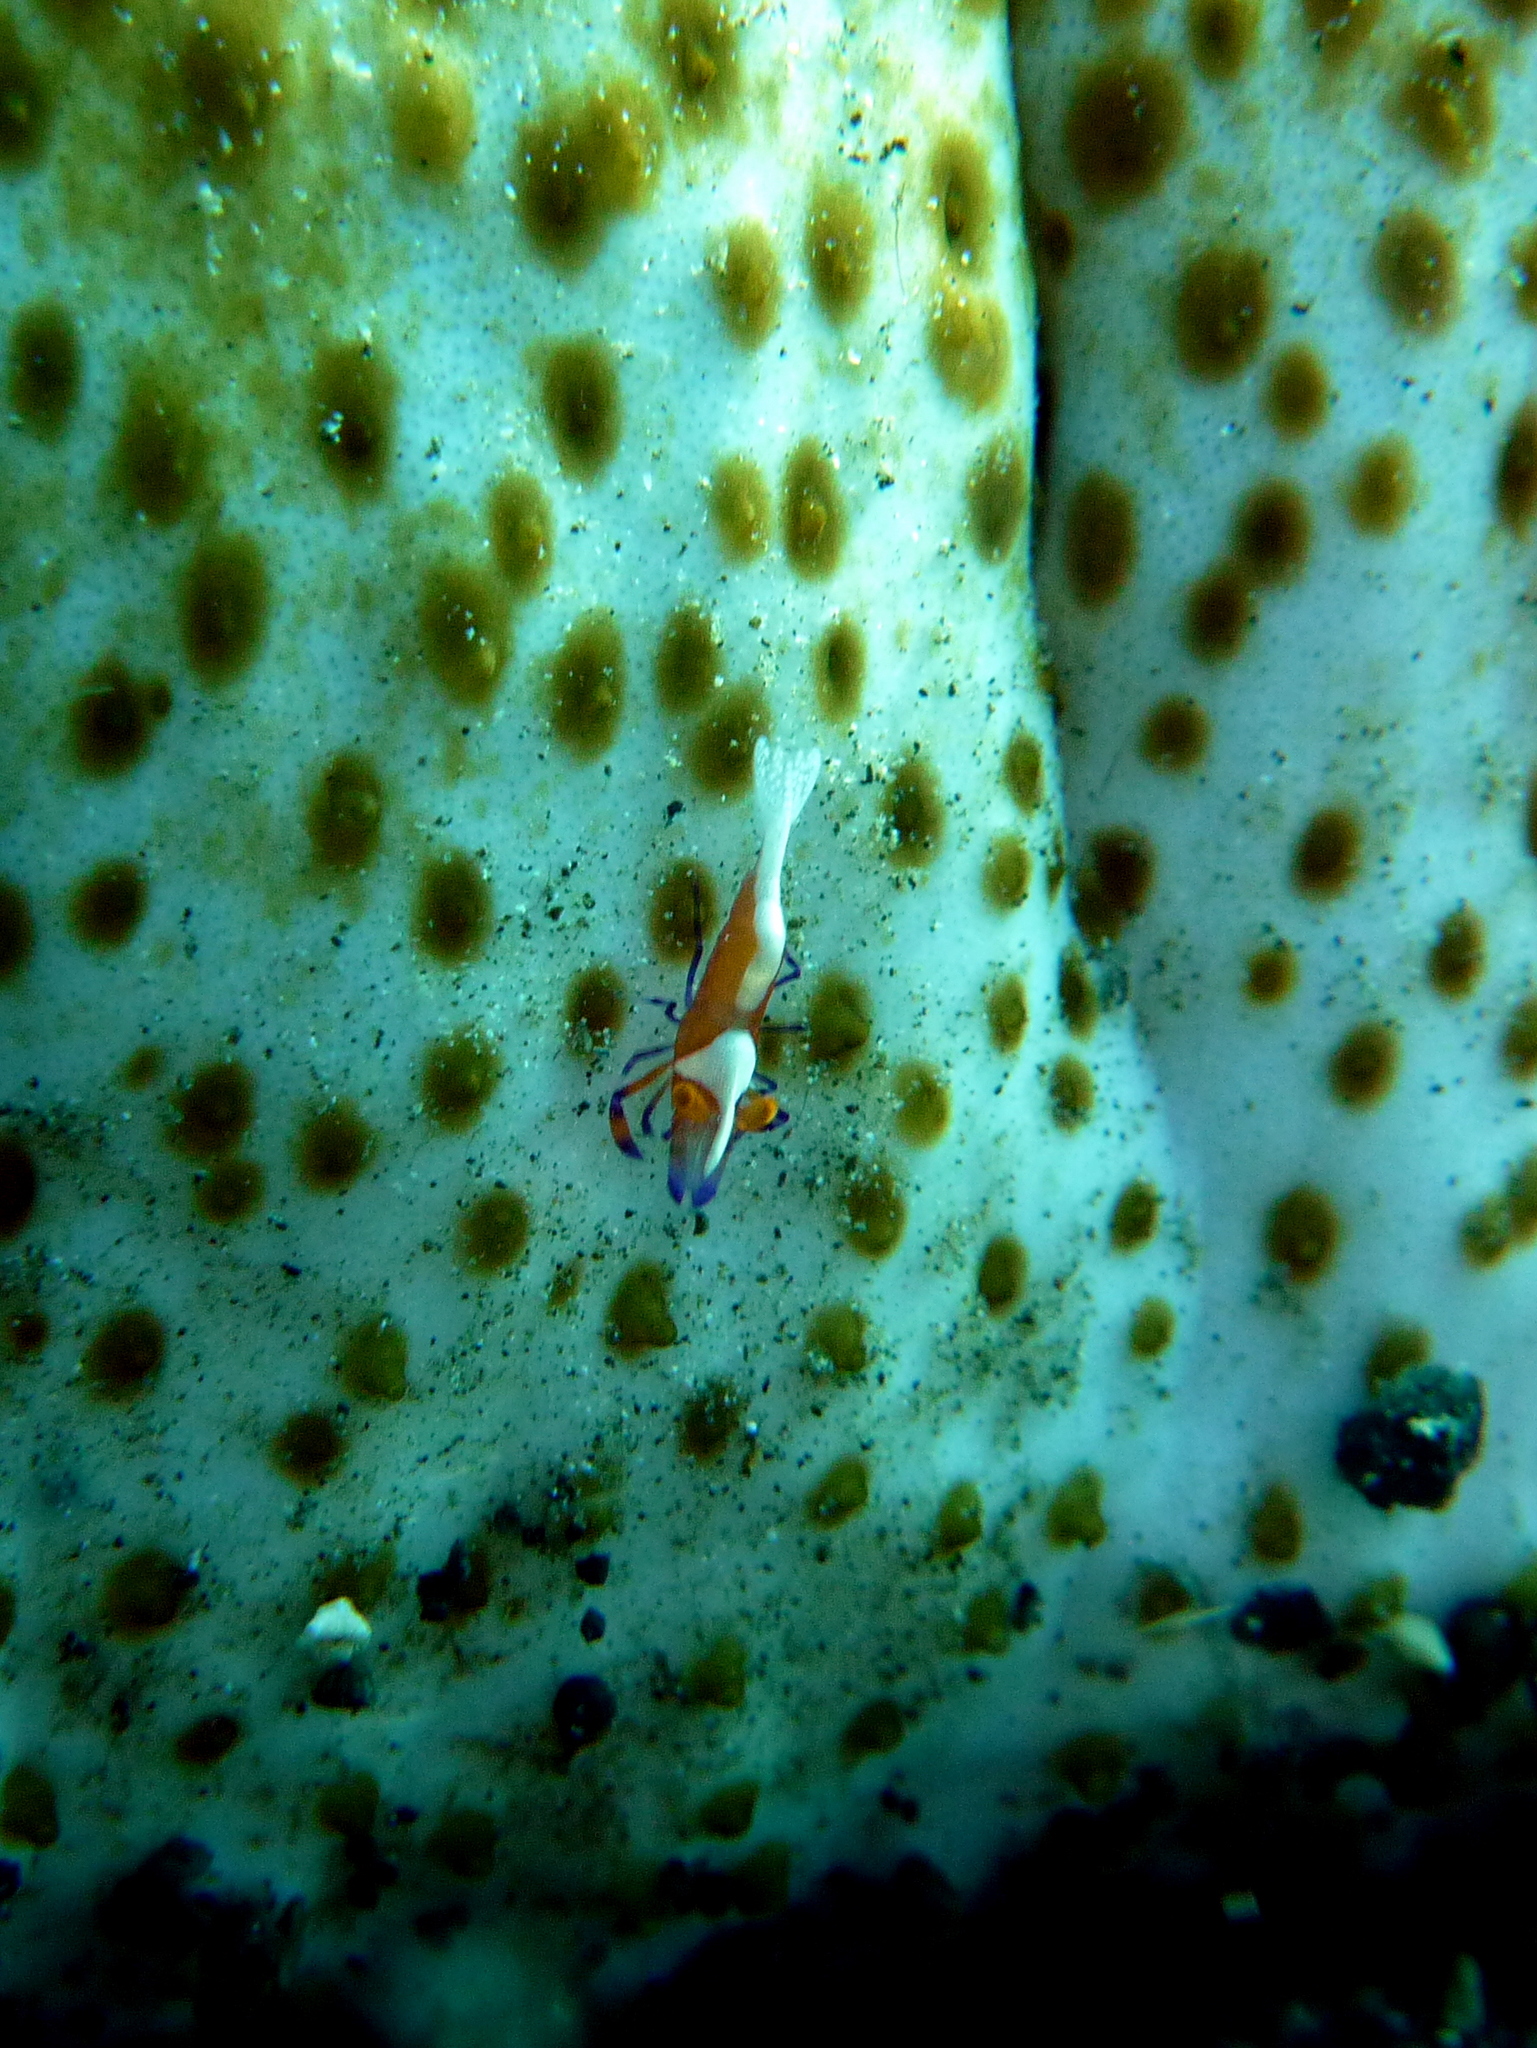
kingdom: Animalia
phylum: Arthropoda
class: Malacostraca
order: Decapoda
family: Palaemonidae
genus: Periclimenes
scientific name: Periclimenes rex
